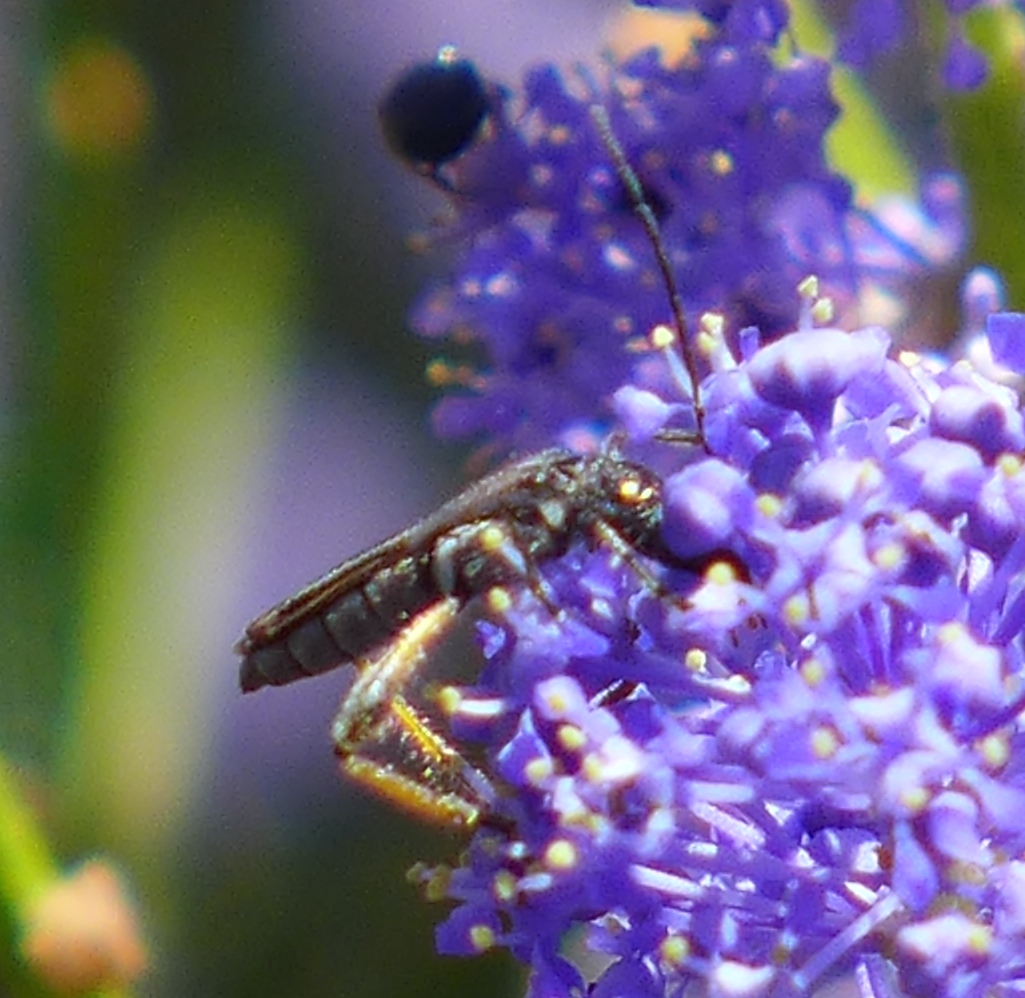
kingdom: Animalia
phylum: Arthropoda
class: Insecta
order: Coleoptera
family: Cerambycidae
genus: Callimoxys
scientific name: Callimoxys fuscipennis
